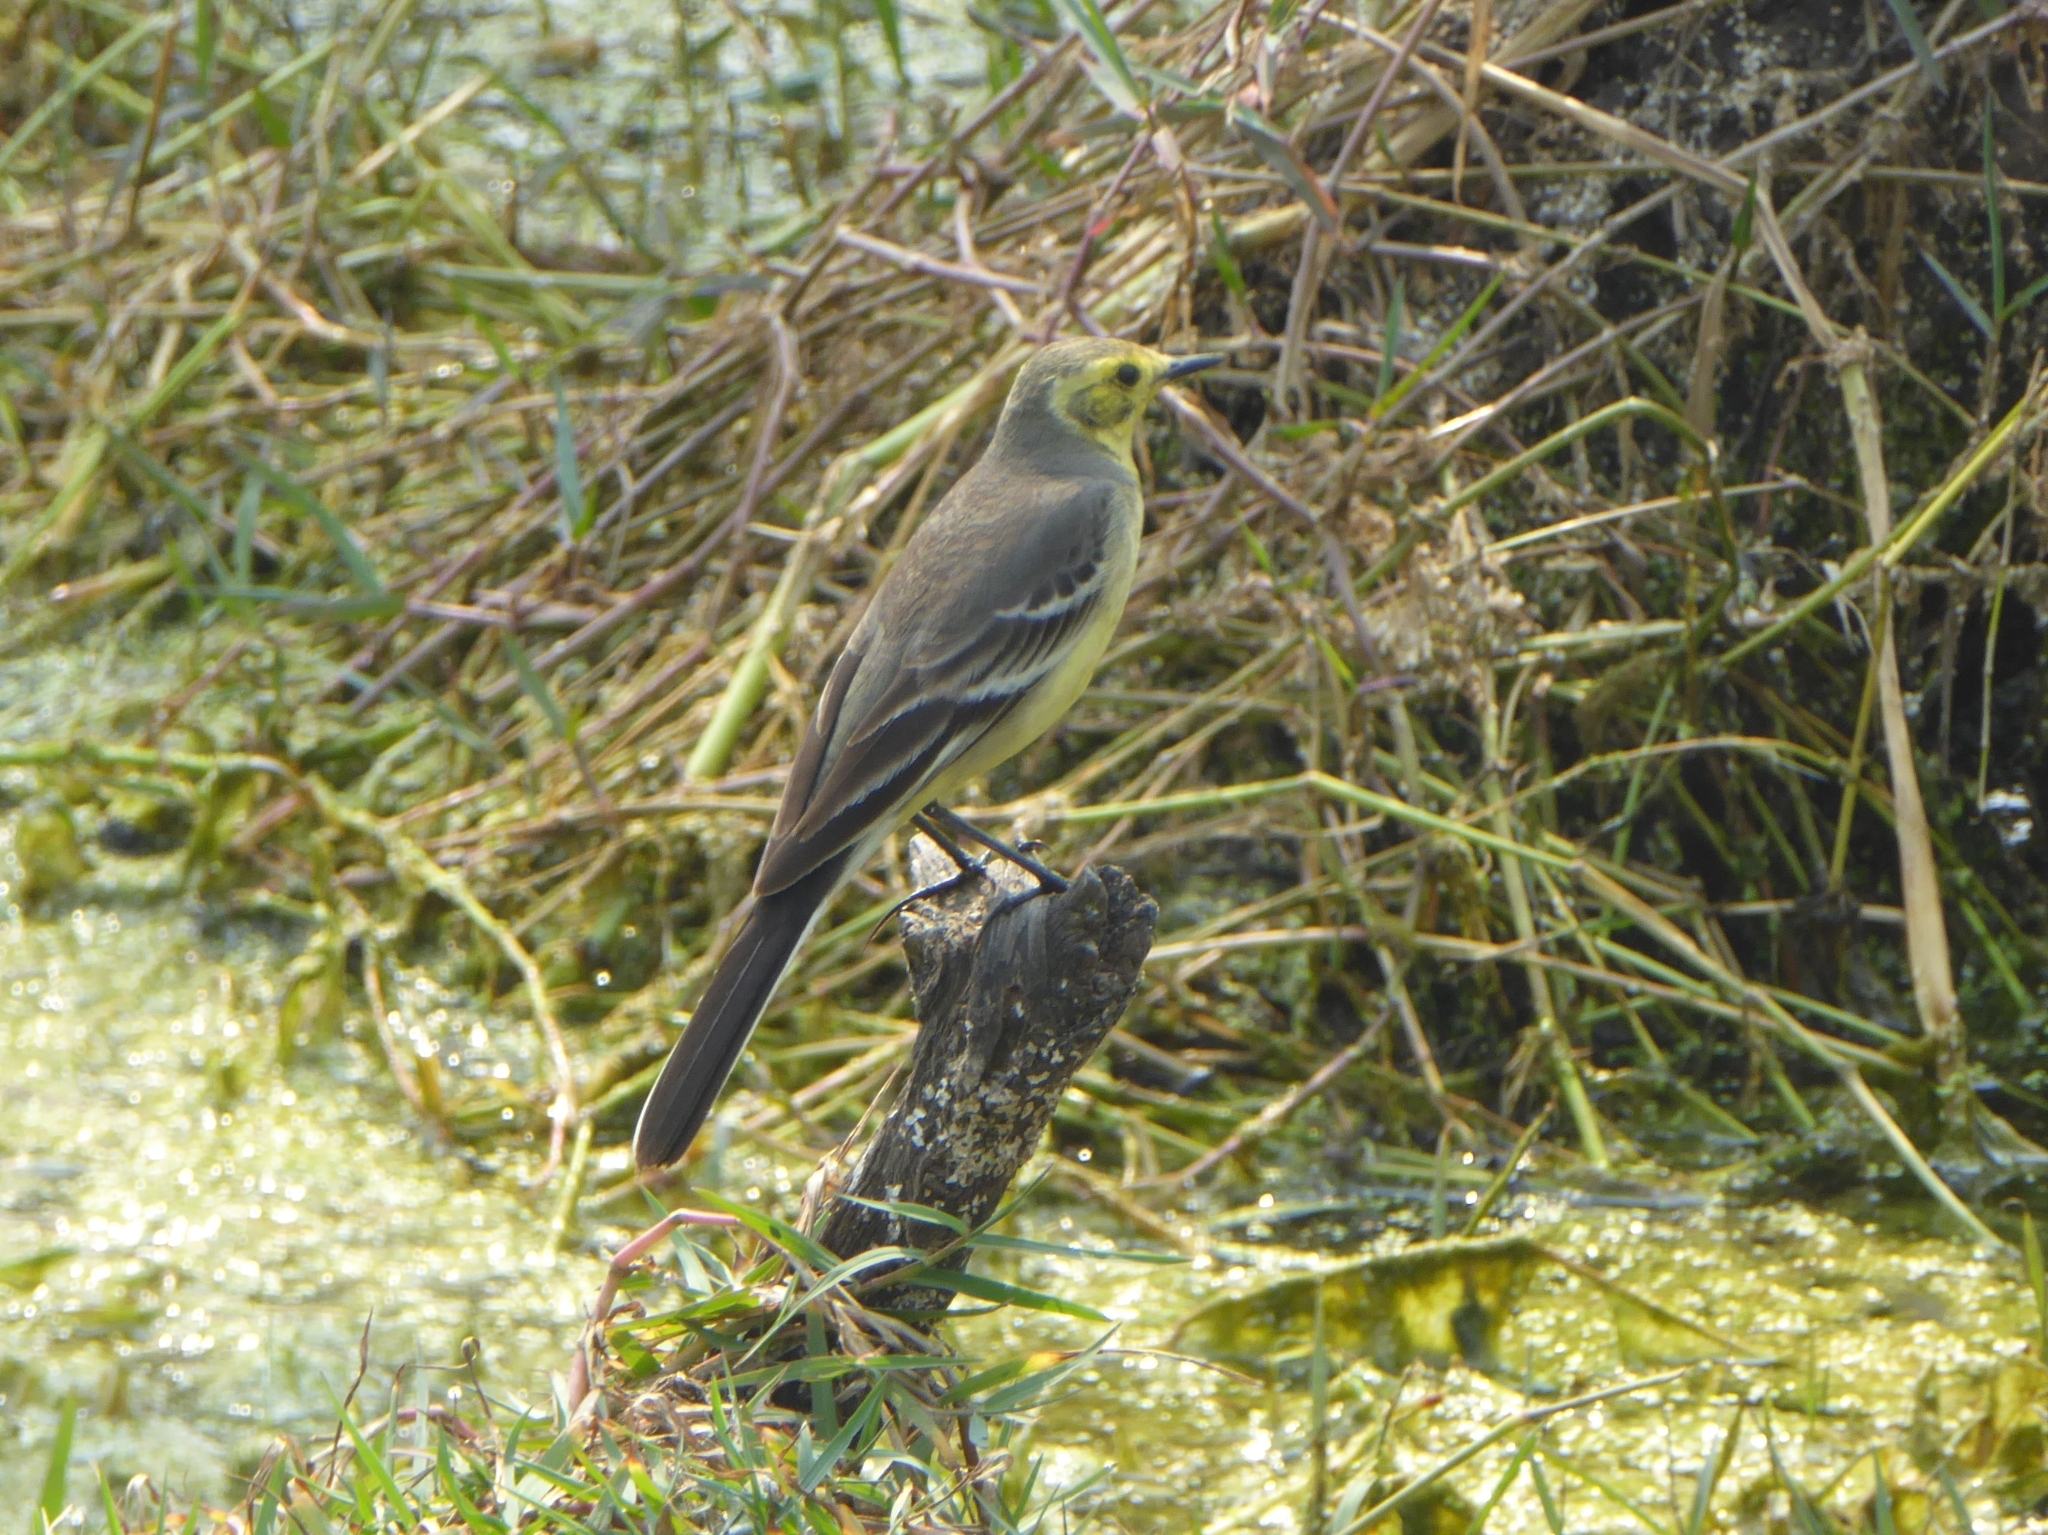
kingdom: Animalia
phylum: Chordata
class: Aves
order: Passeriformes
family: Motacillidae
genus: Motacilla
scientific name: Motacilla citreola
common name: Citrine wagtail
